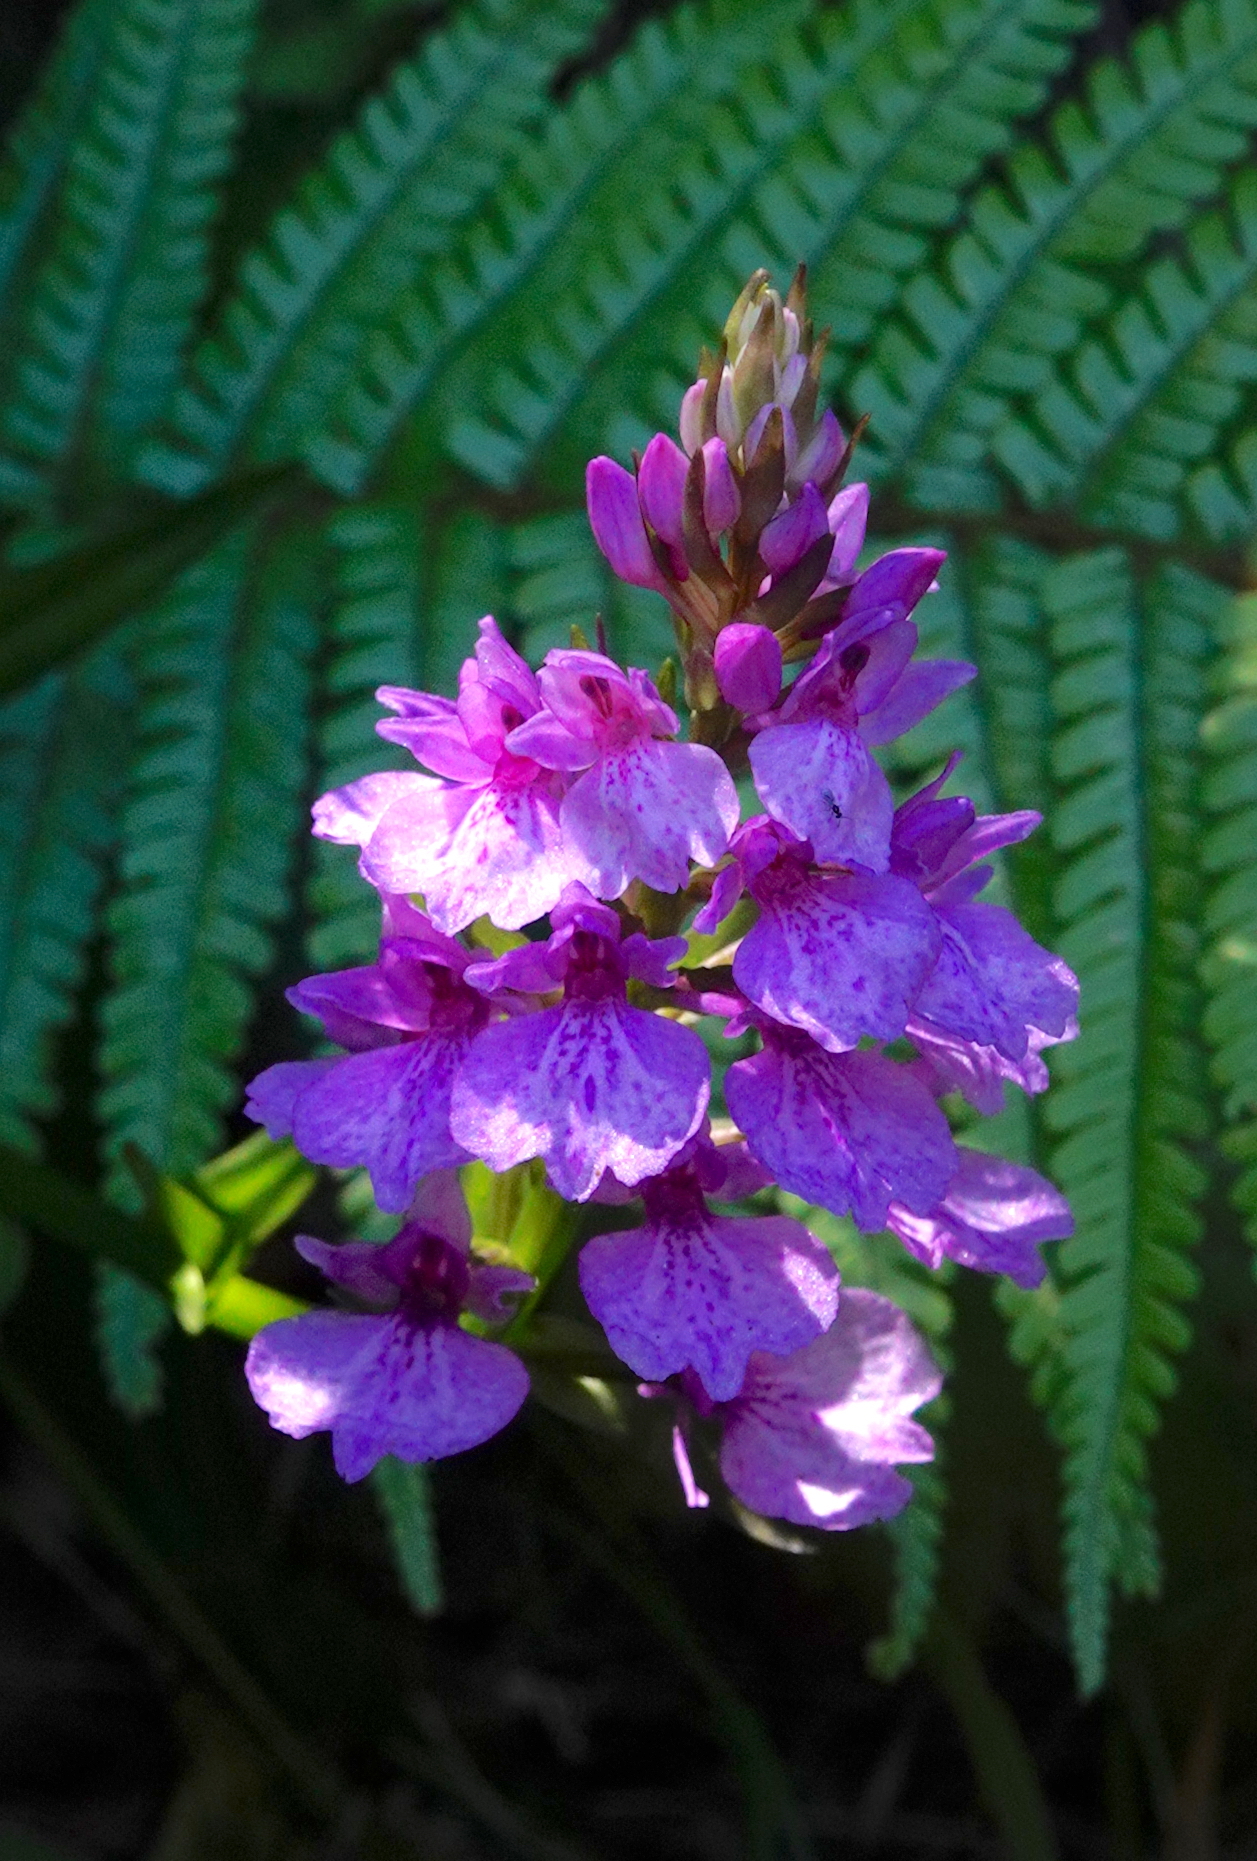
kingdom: Plantae
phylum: Tracheophyta
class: Liliopsida
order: Asparagales
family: Orchidaceae
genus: Dactylorhiza
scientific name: Dactylorhiza foliosa
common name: Richly-leaved dactylorhiza
